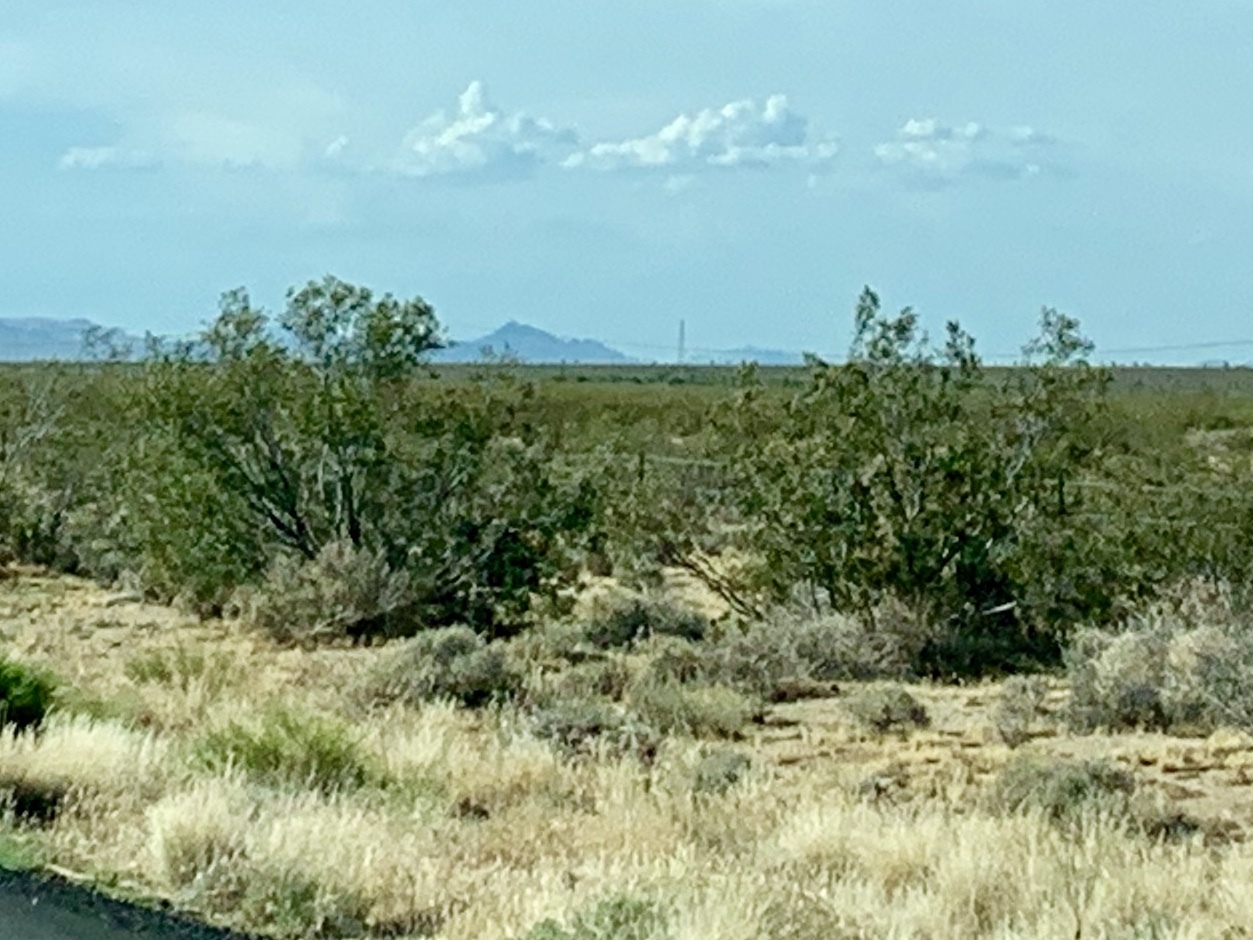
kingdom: Plantae
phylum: Tracheophyta
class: Magnoliopsida
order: Zygophyllales
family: Zygophyllaceae
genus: Larrea
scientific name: Larrea tridentata
